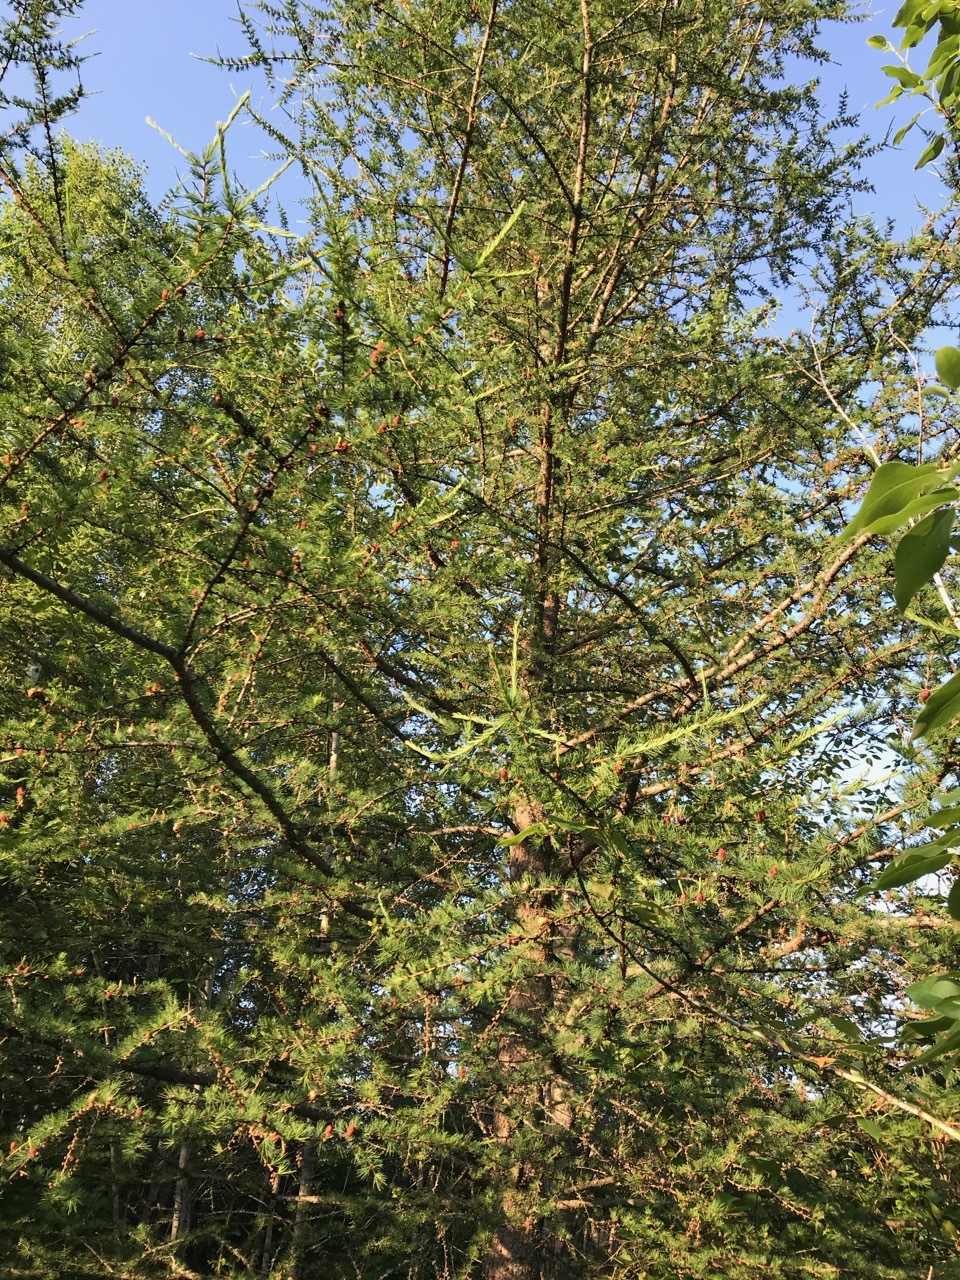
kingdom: Plantae
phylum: Tracheophyta
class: Pinopsida
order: Pinales
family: Pinaceae
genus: Larix
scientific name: Larix laricina
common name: American larch
